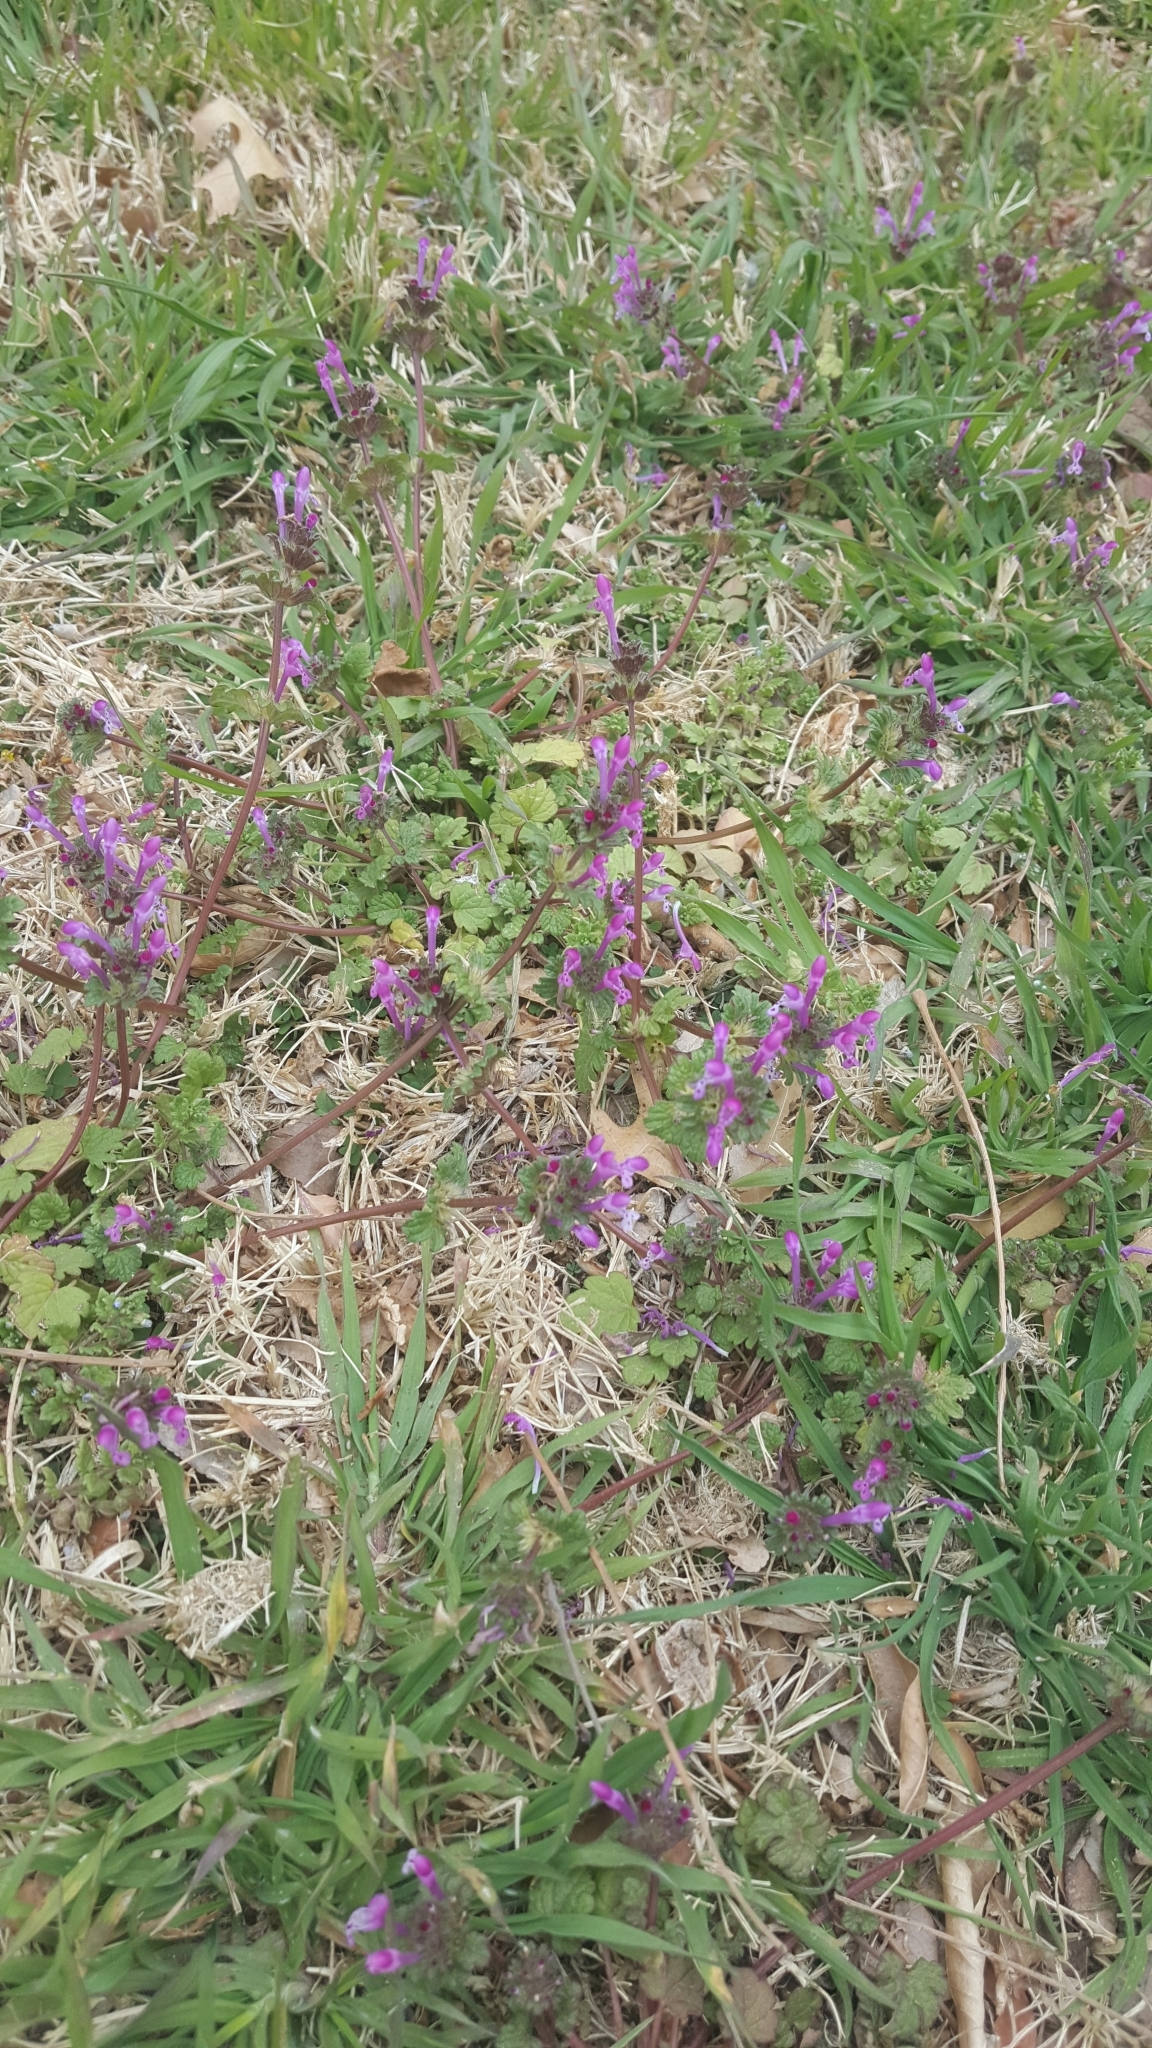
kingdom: Plantae
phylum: Tracheophyta
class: Magnoliopsida
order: Lamiales
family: Lamiaceae
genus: Lamium
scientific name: Lamium amplexicaule
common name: Henbit dead-nettle
